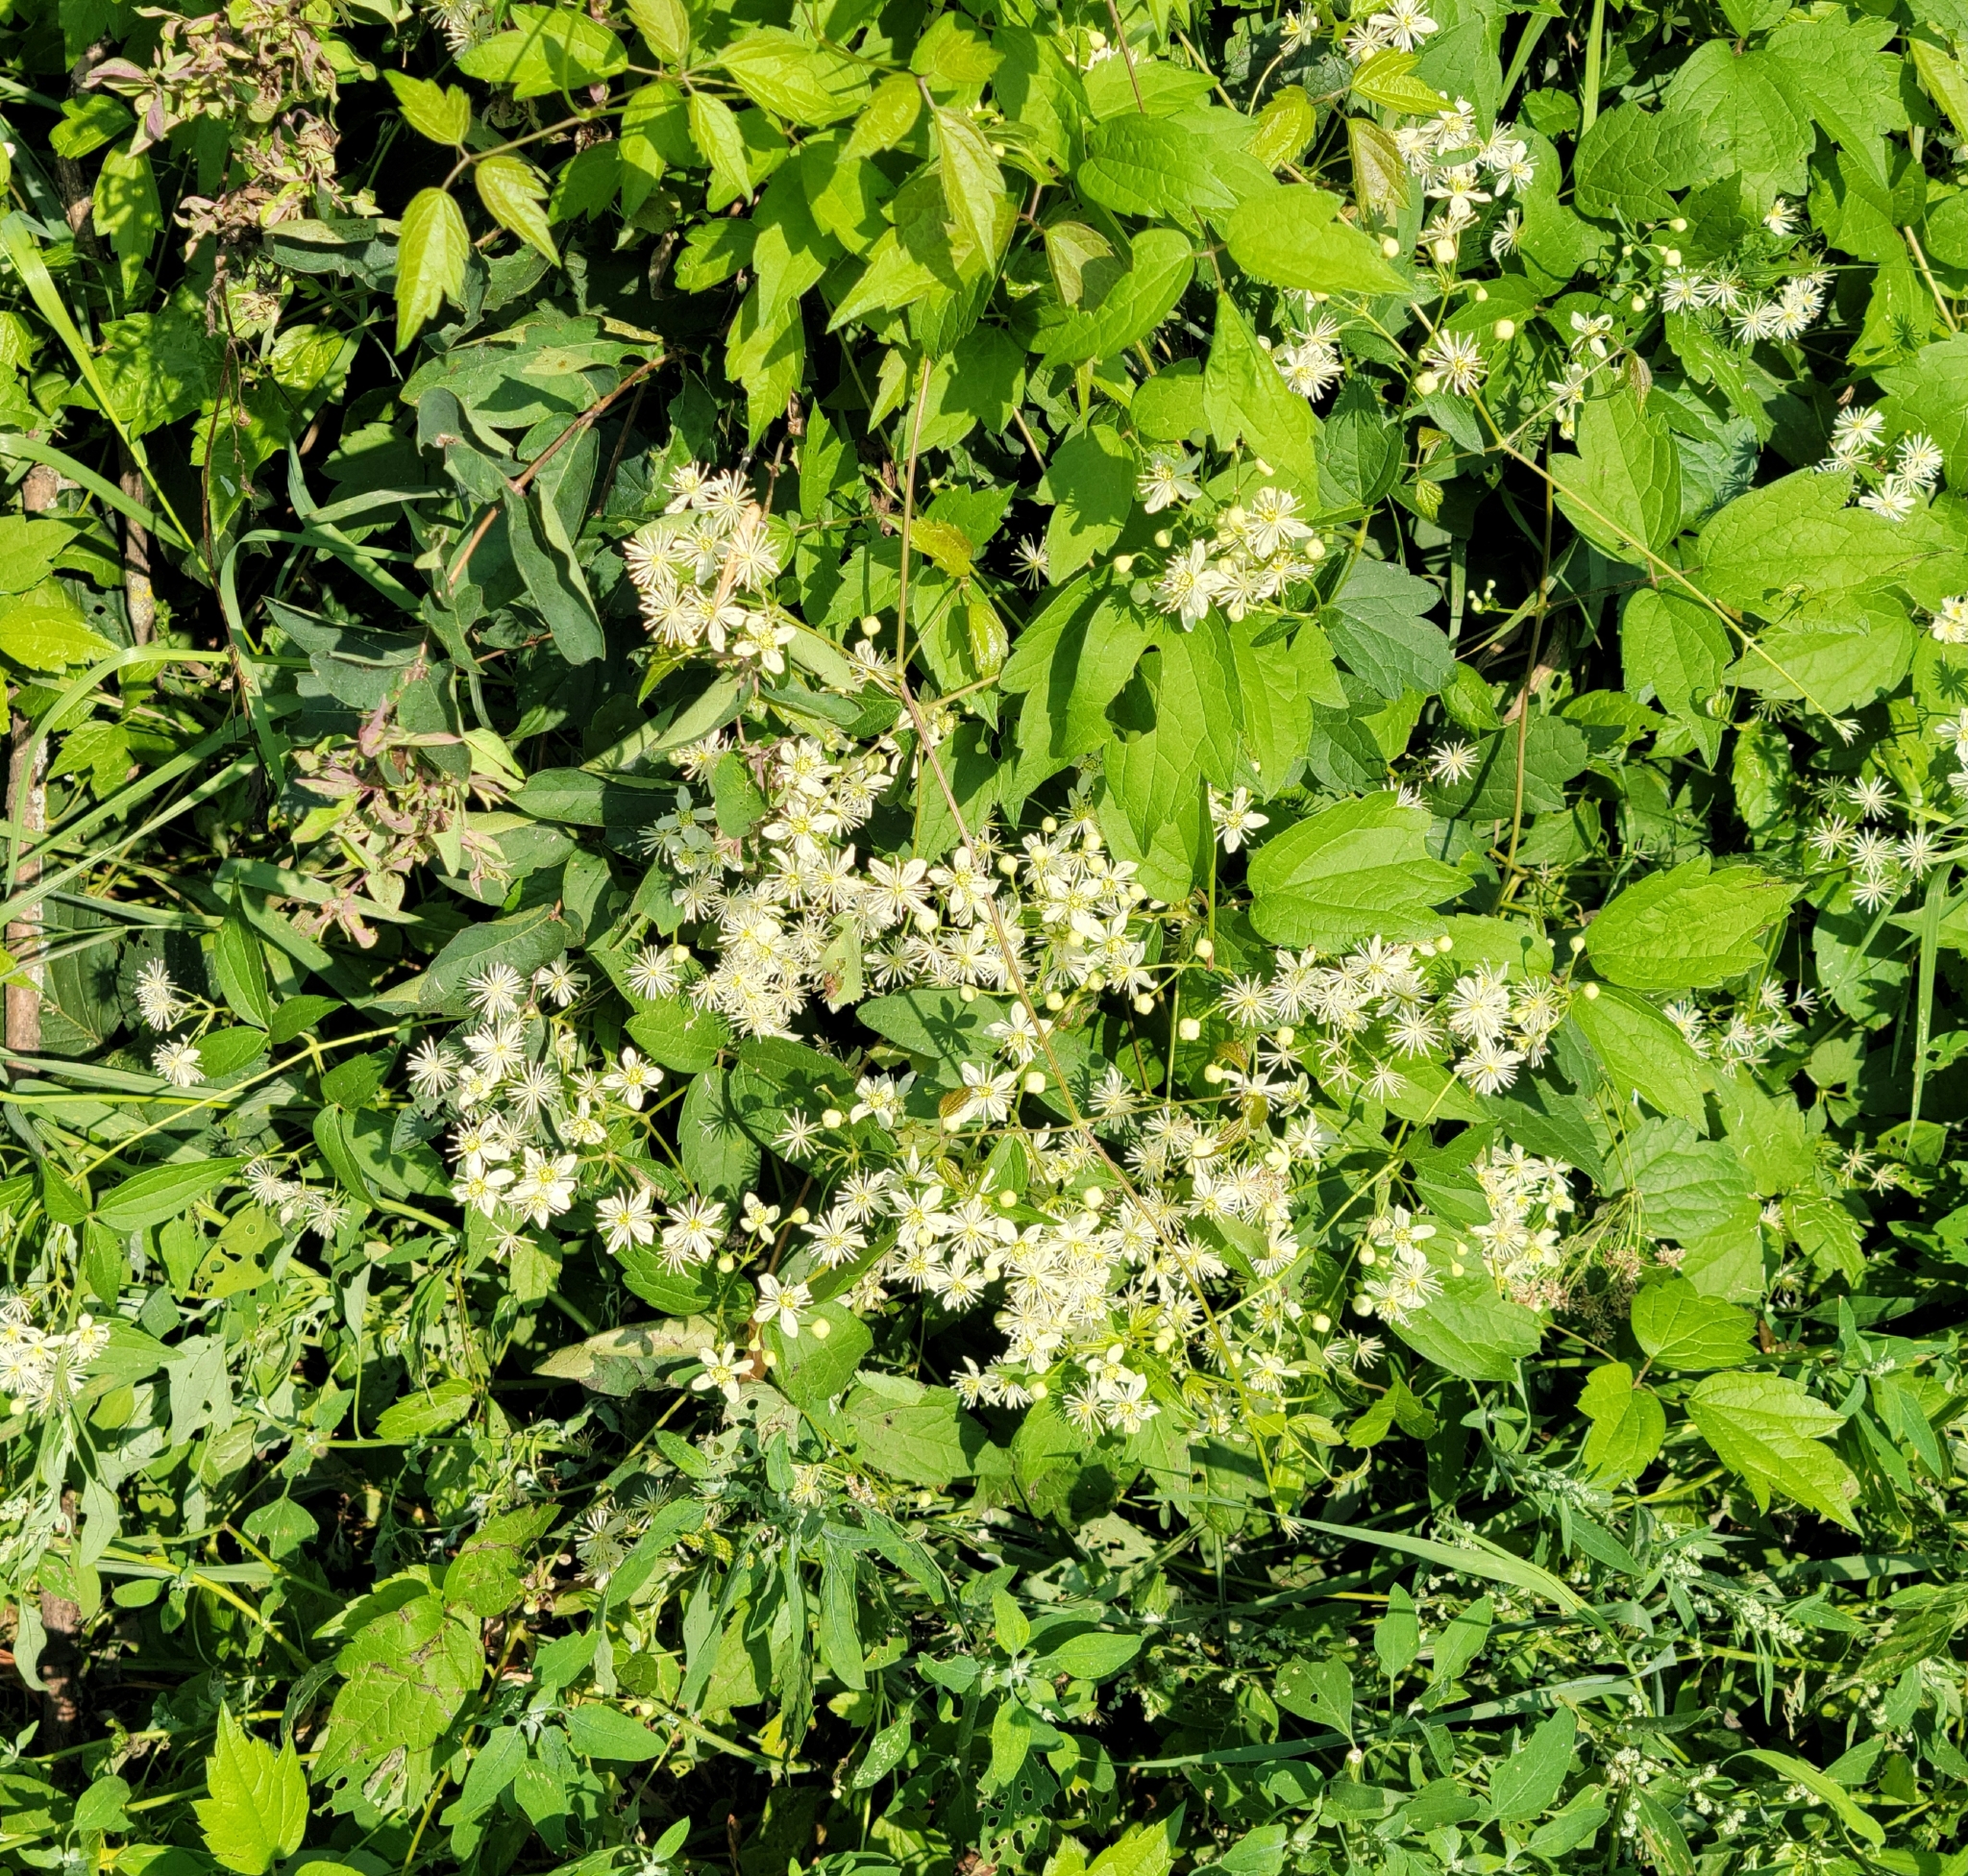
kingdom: Plantae
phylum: Tracheophyta
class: Magnoliopsida
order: Ranunculales
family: Ranunculaceae
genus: Clematis
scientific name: Clematis virginiana
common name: Virgin's-bower
